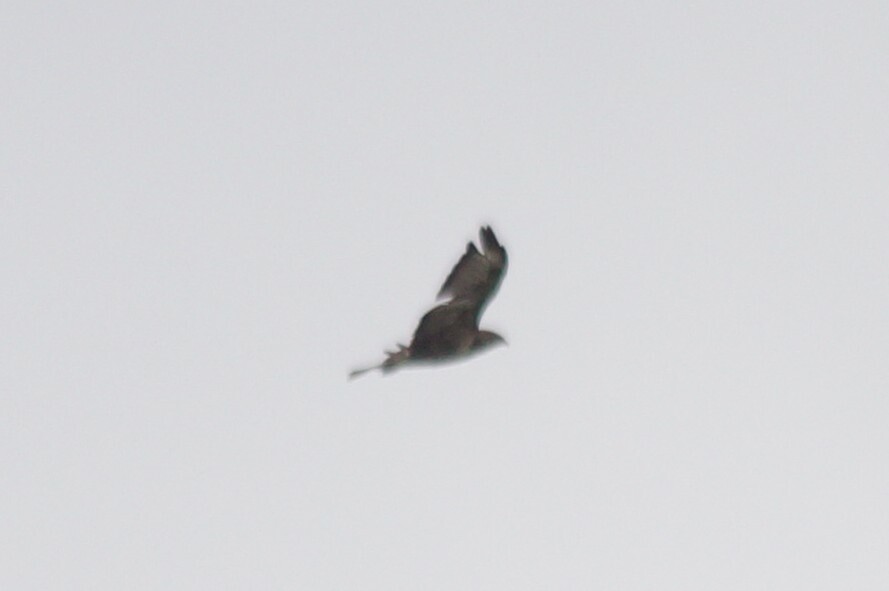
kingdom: Animalia
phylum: Chordata
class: Aves
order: Accipitriformes
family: Accipitridae
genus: Buteo
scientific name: Buteo buteo
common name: Common buzzard
